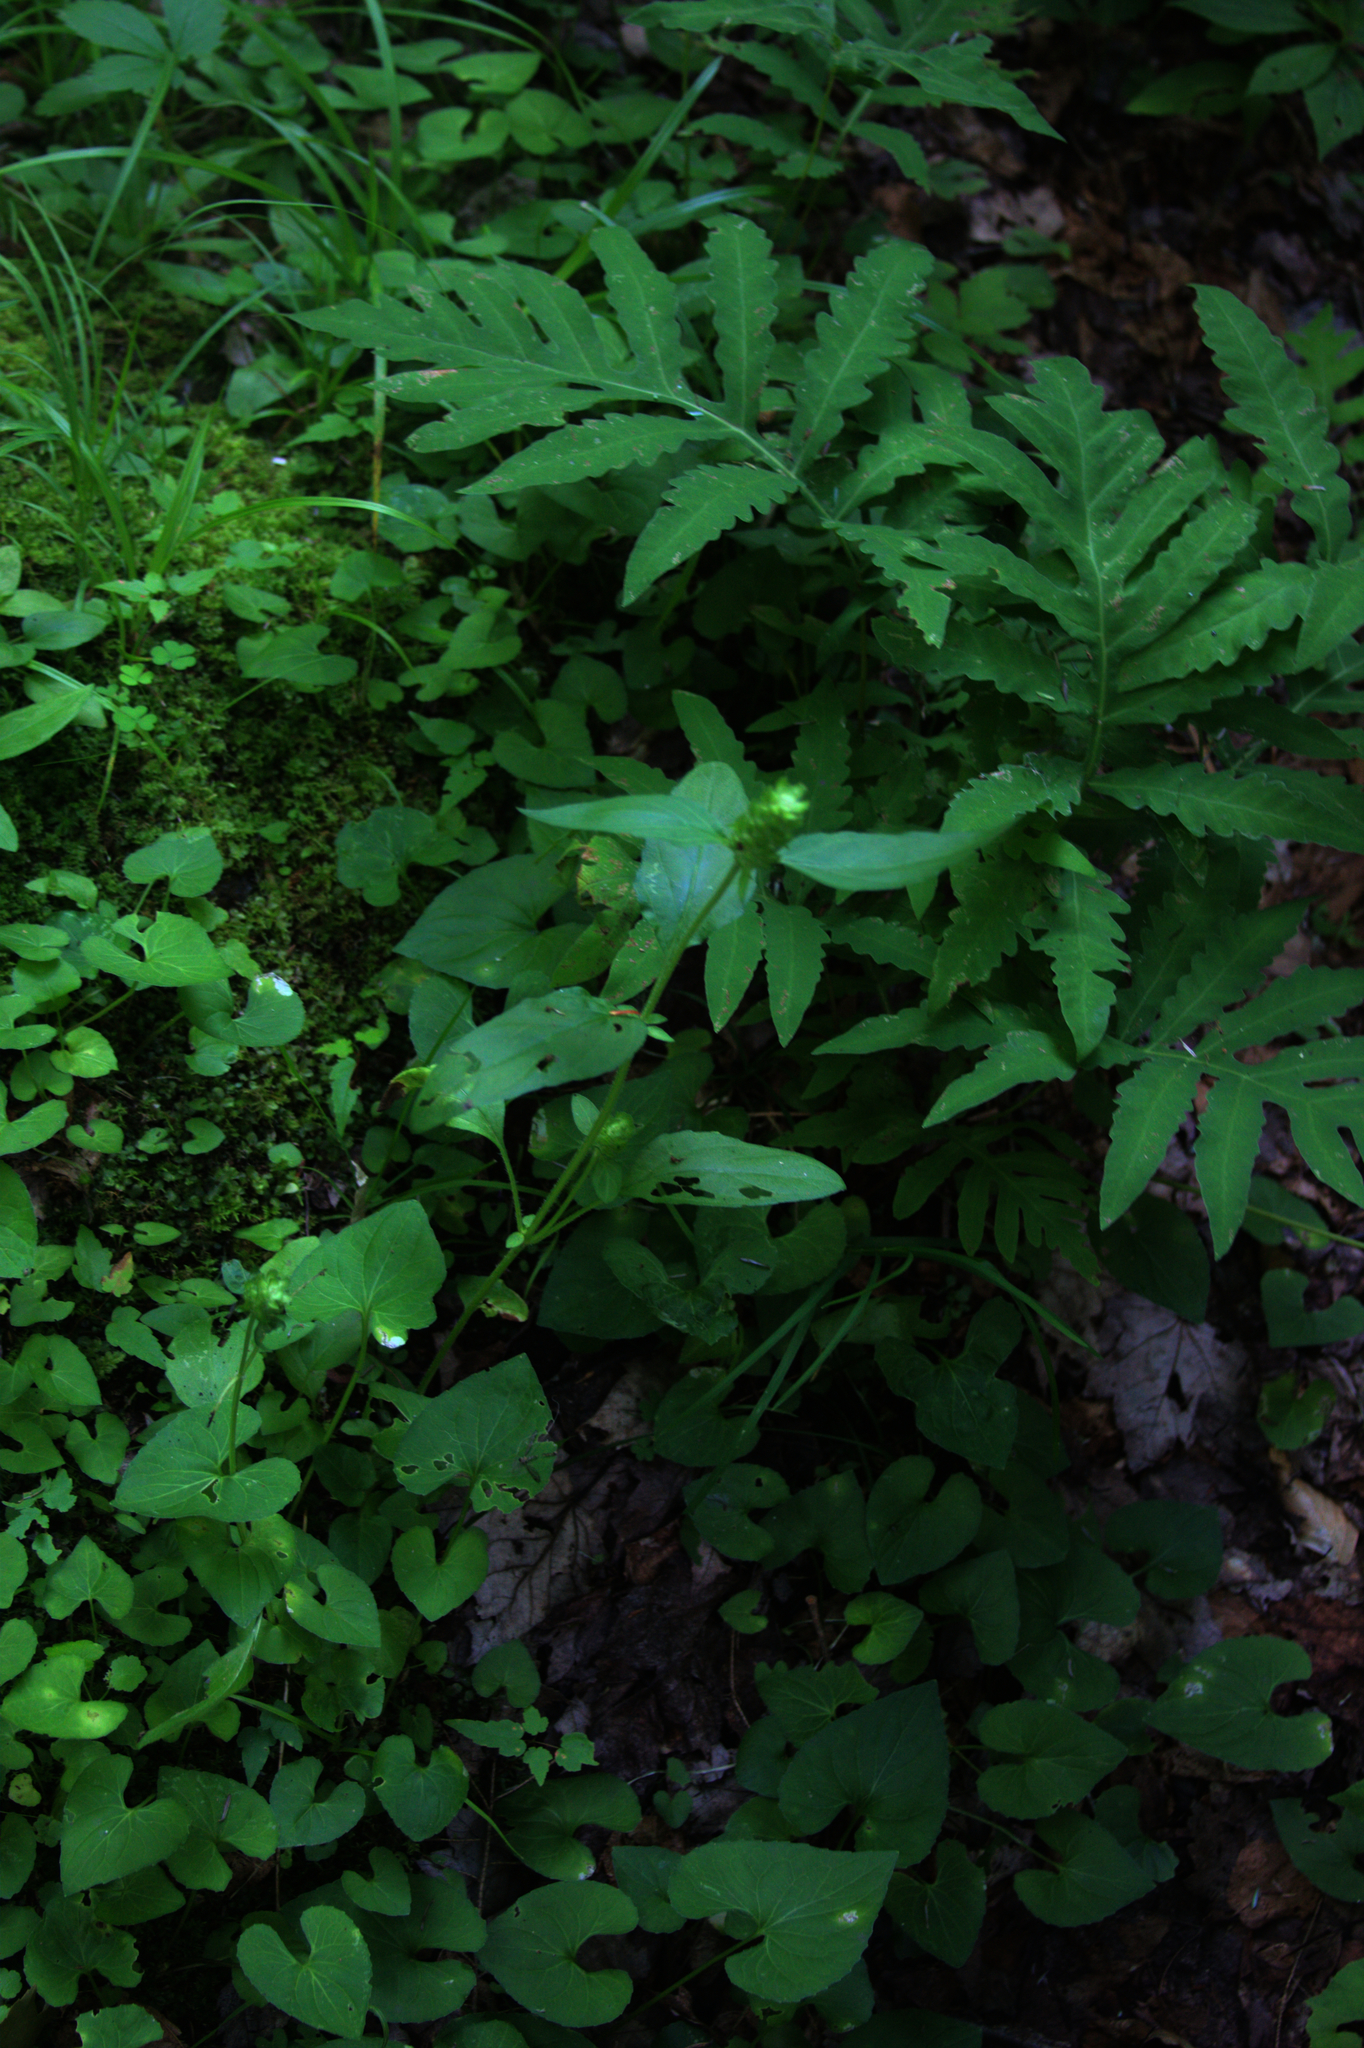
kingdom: Plantae
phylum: Tracheophyta
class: Magnoliopsida
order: Lamiales
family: Lamiaceae
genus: Prunella
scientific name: Prunella vulgaris
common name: Heal-all
